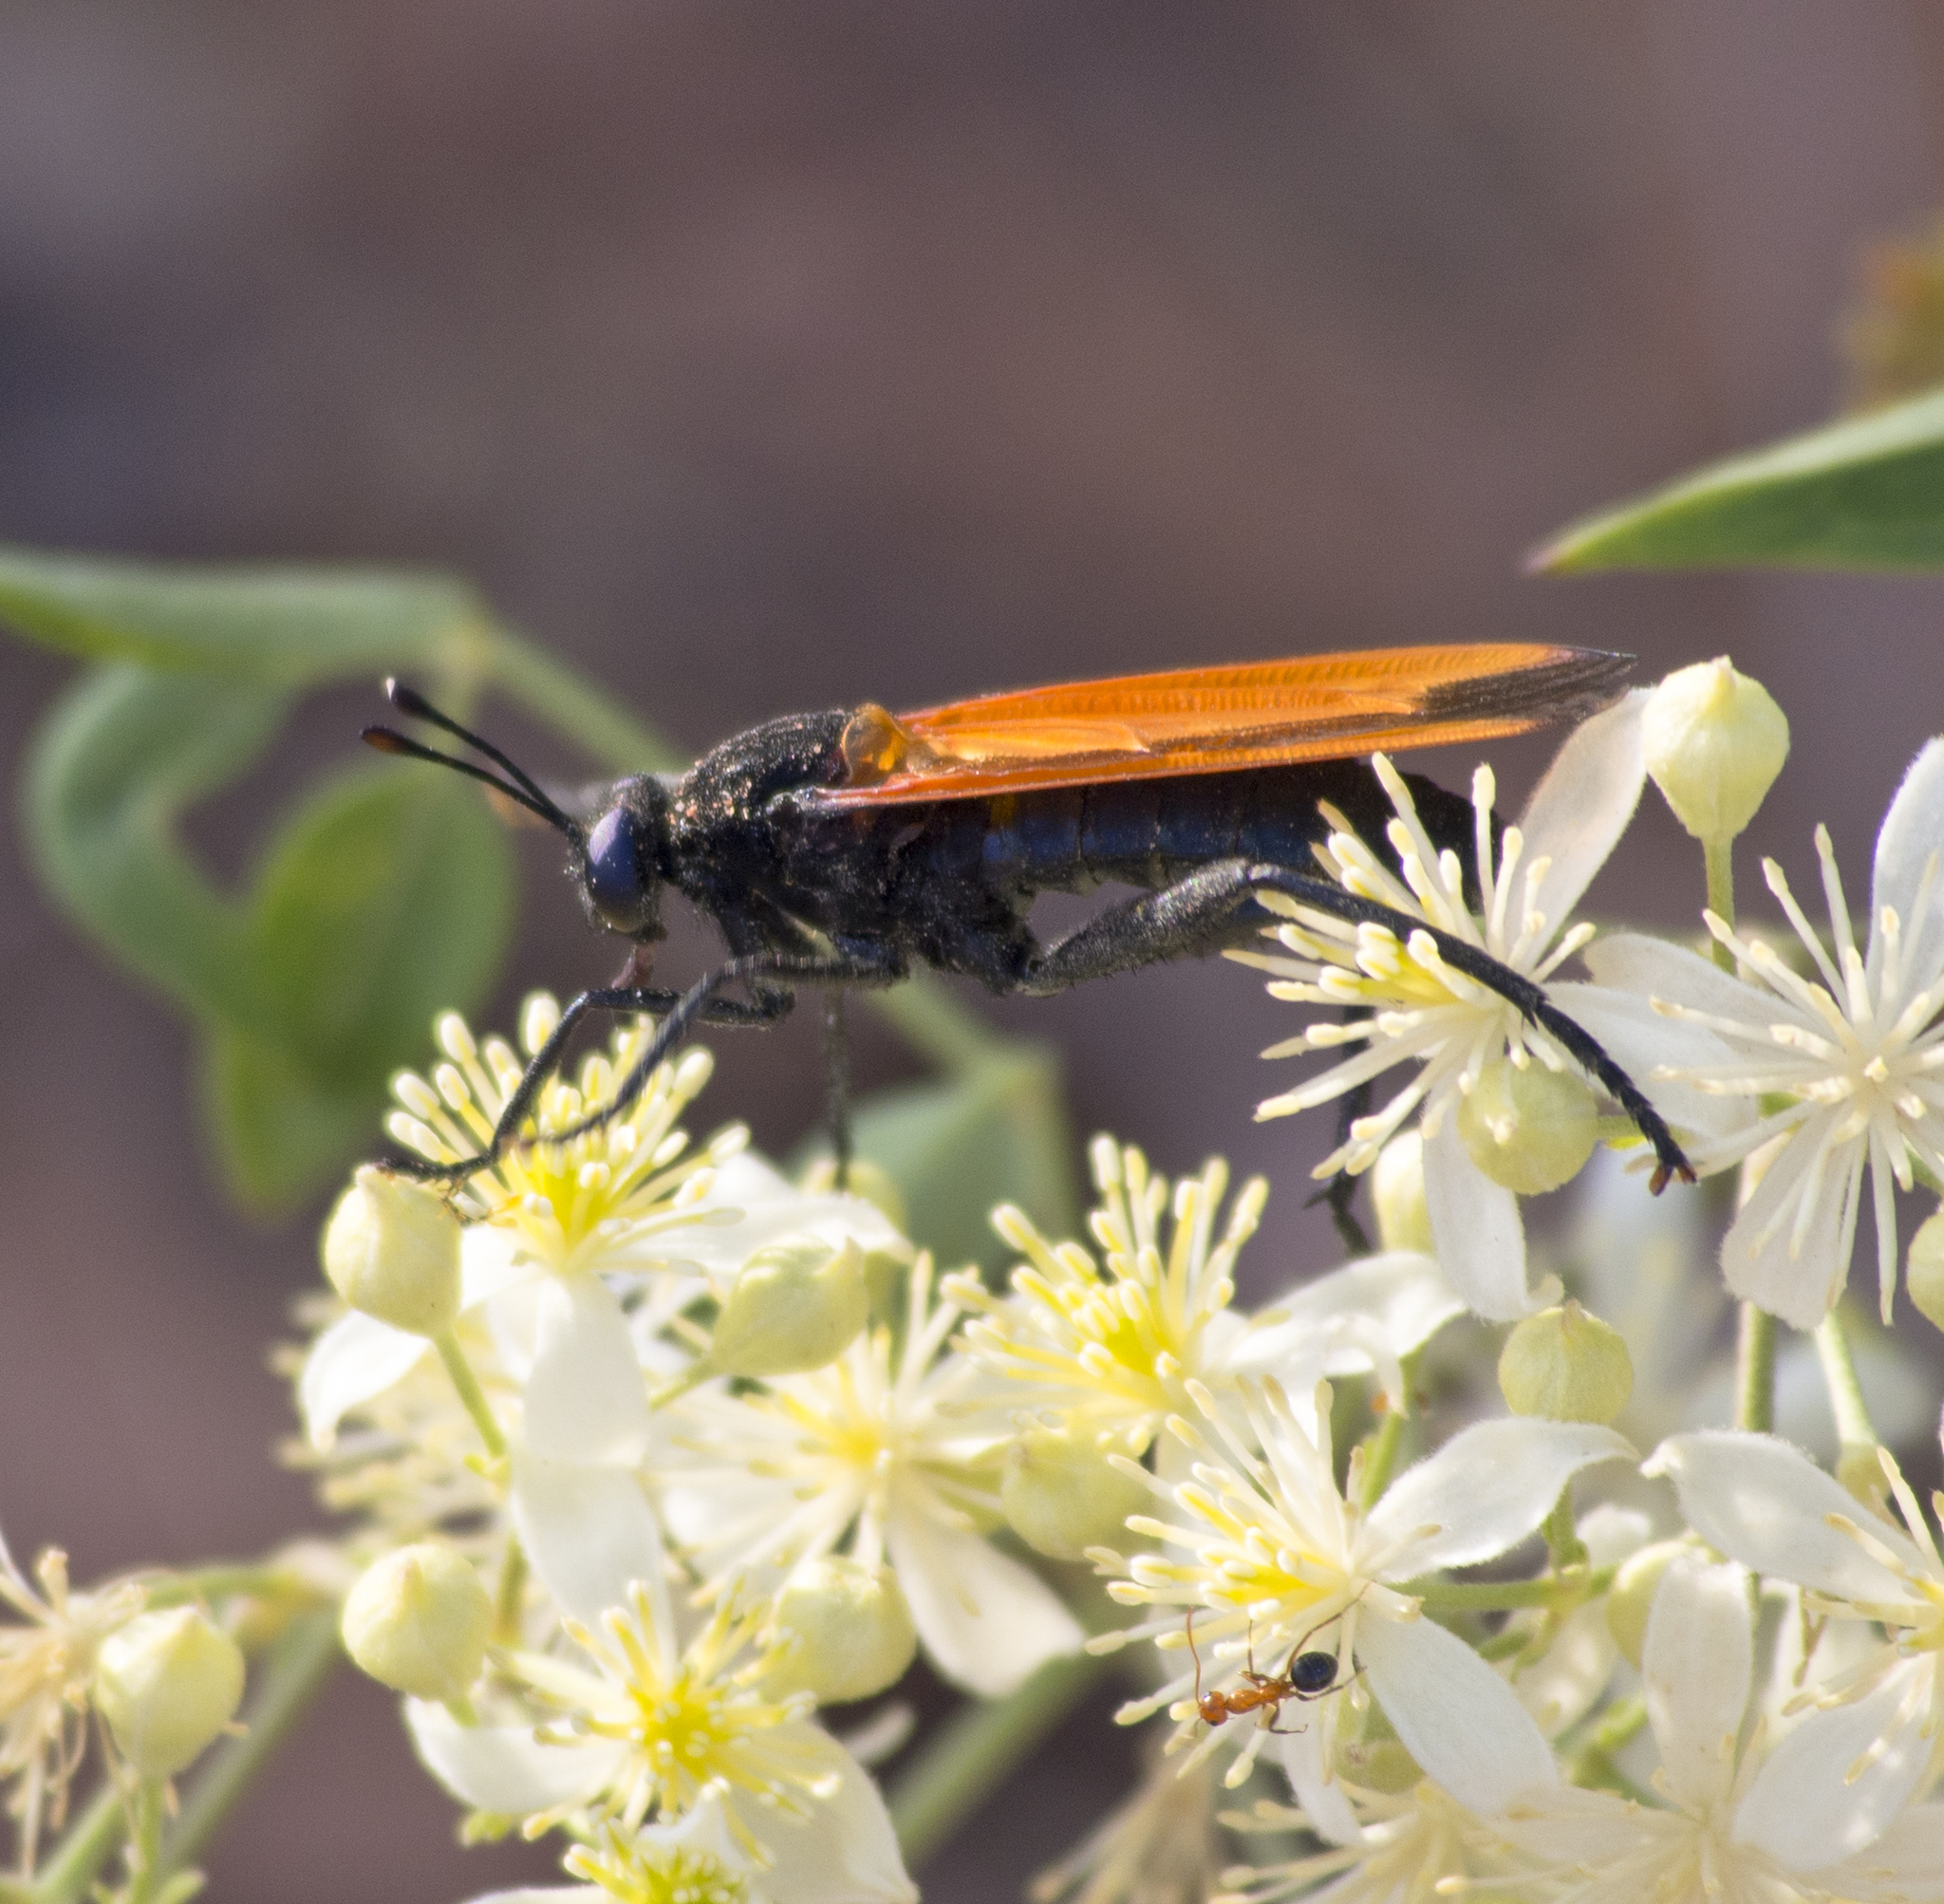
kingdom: Animalia
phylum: Arthropoda
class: Insecta
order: Diptera
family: Mydidae
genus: Mydas
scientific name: Mydas xanthopterus
